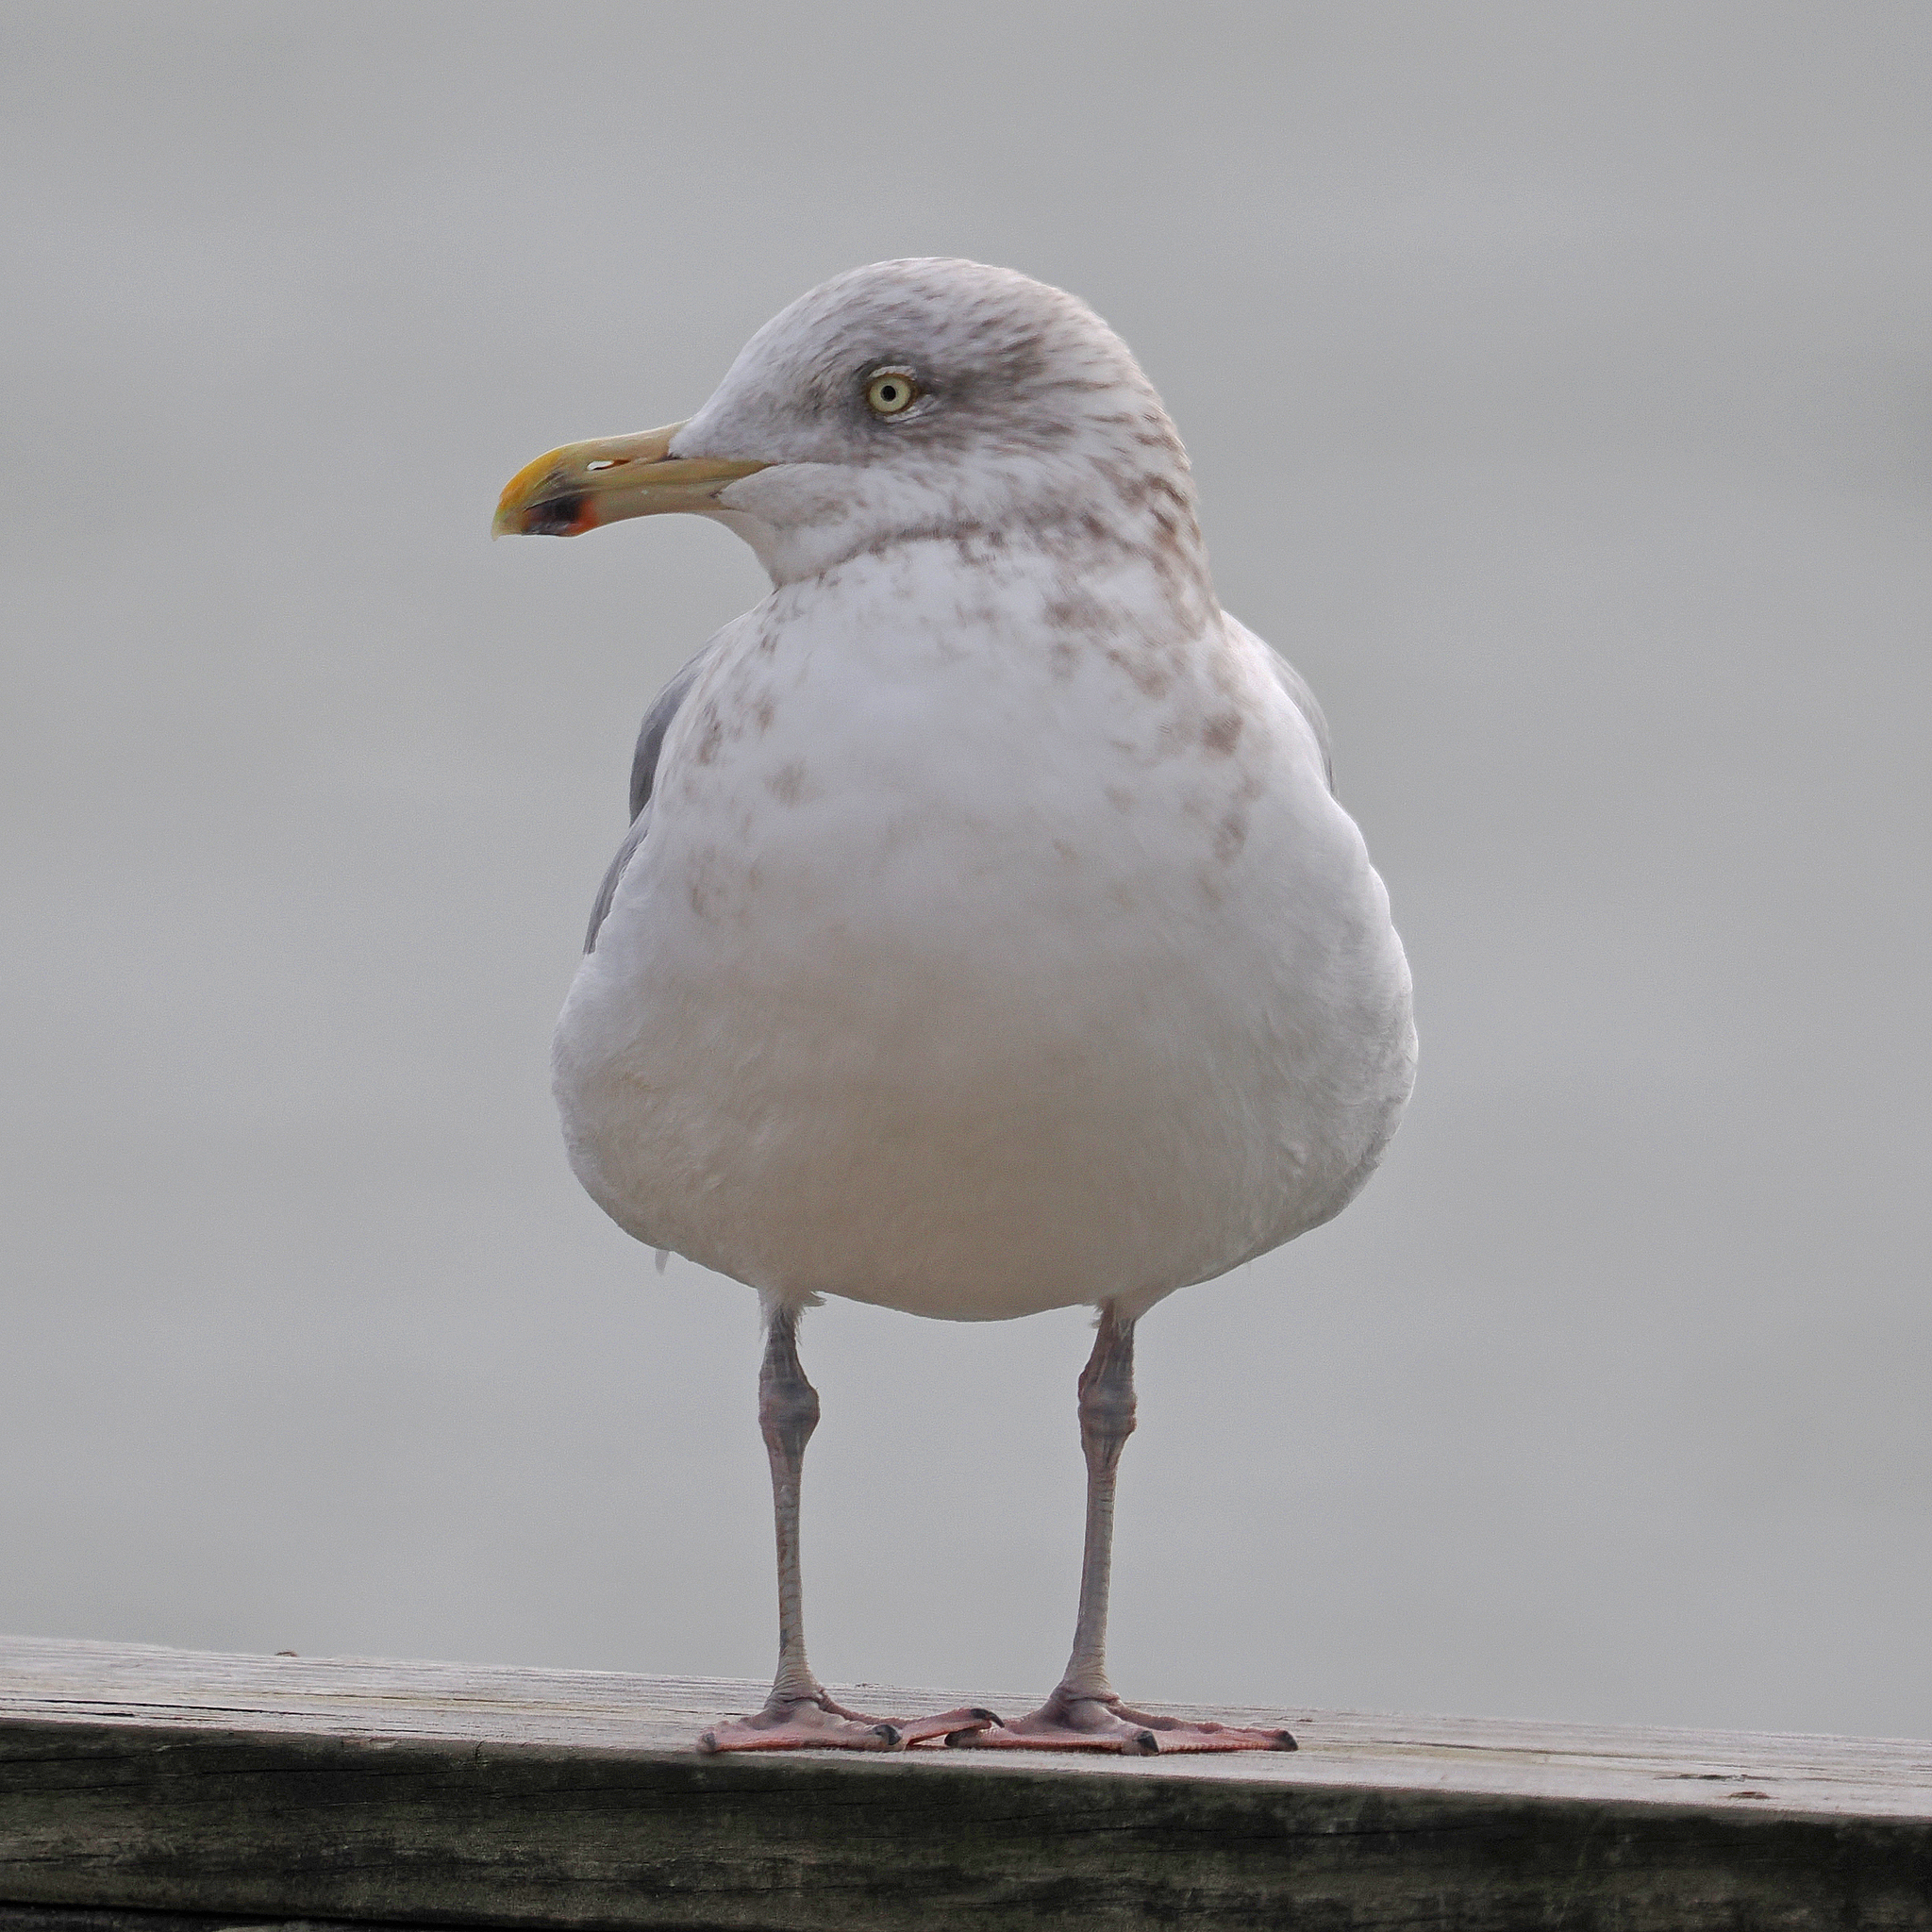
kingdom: Animalia
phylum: Chordata
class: Aves
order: Charadriiformes
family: Laridae
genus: Larus
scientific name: Larus argentatus
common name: Herring gull
